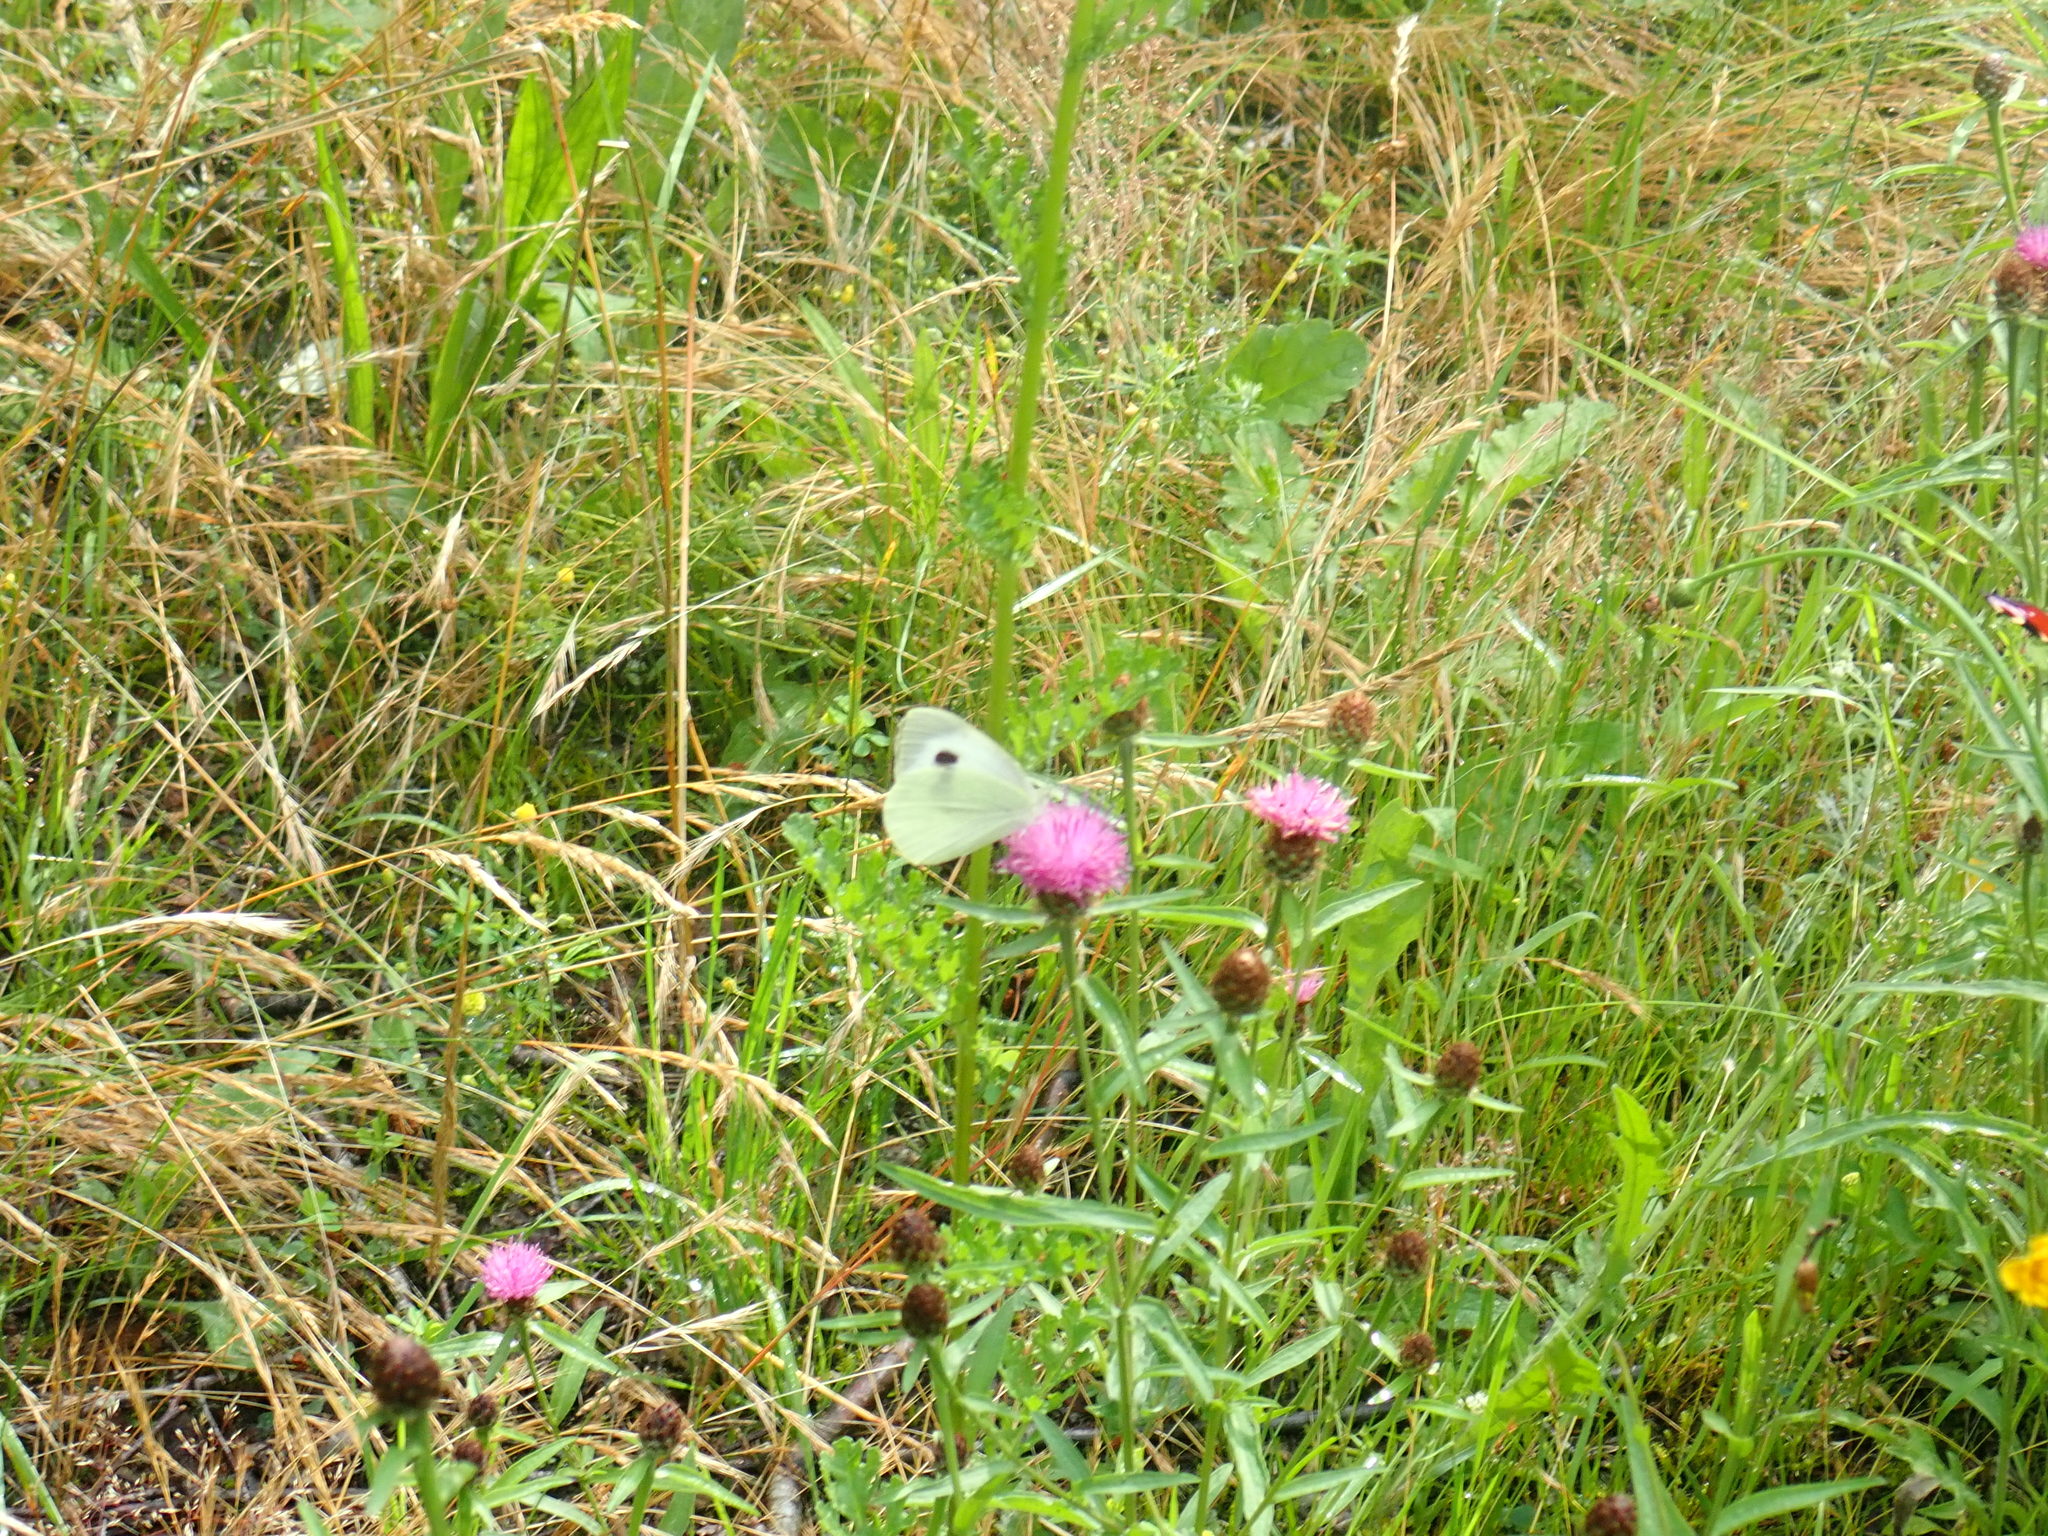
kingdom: Animalia
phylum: Arthropoda
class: Insecta
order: Lepidoptera
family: Pieridae
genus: Pieris
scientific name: Pieris brassicae
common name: Large white
